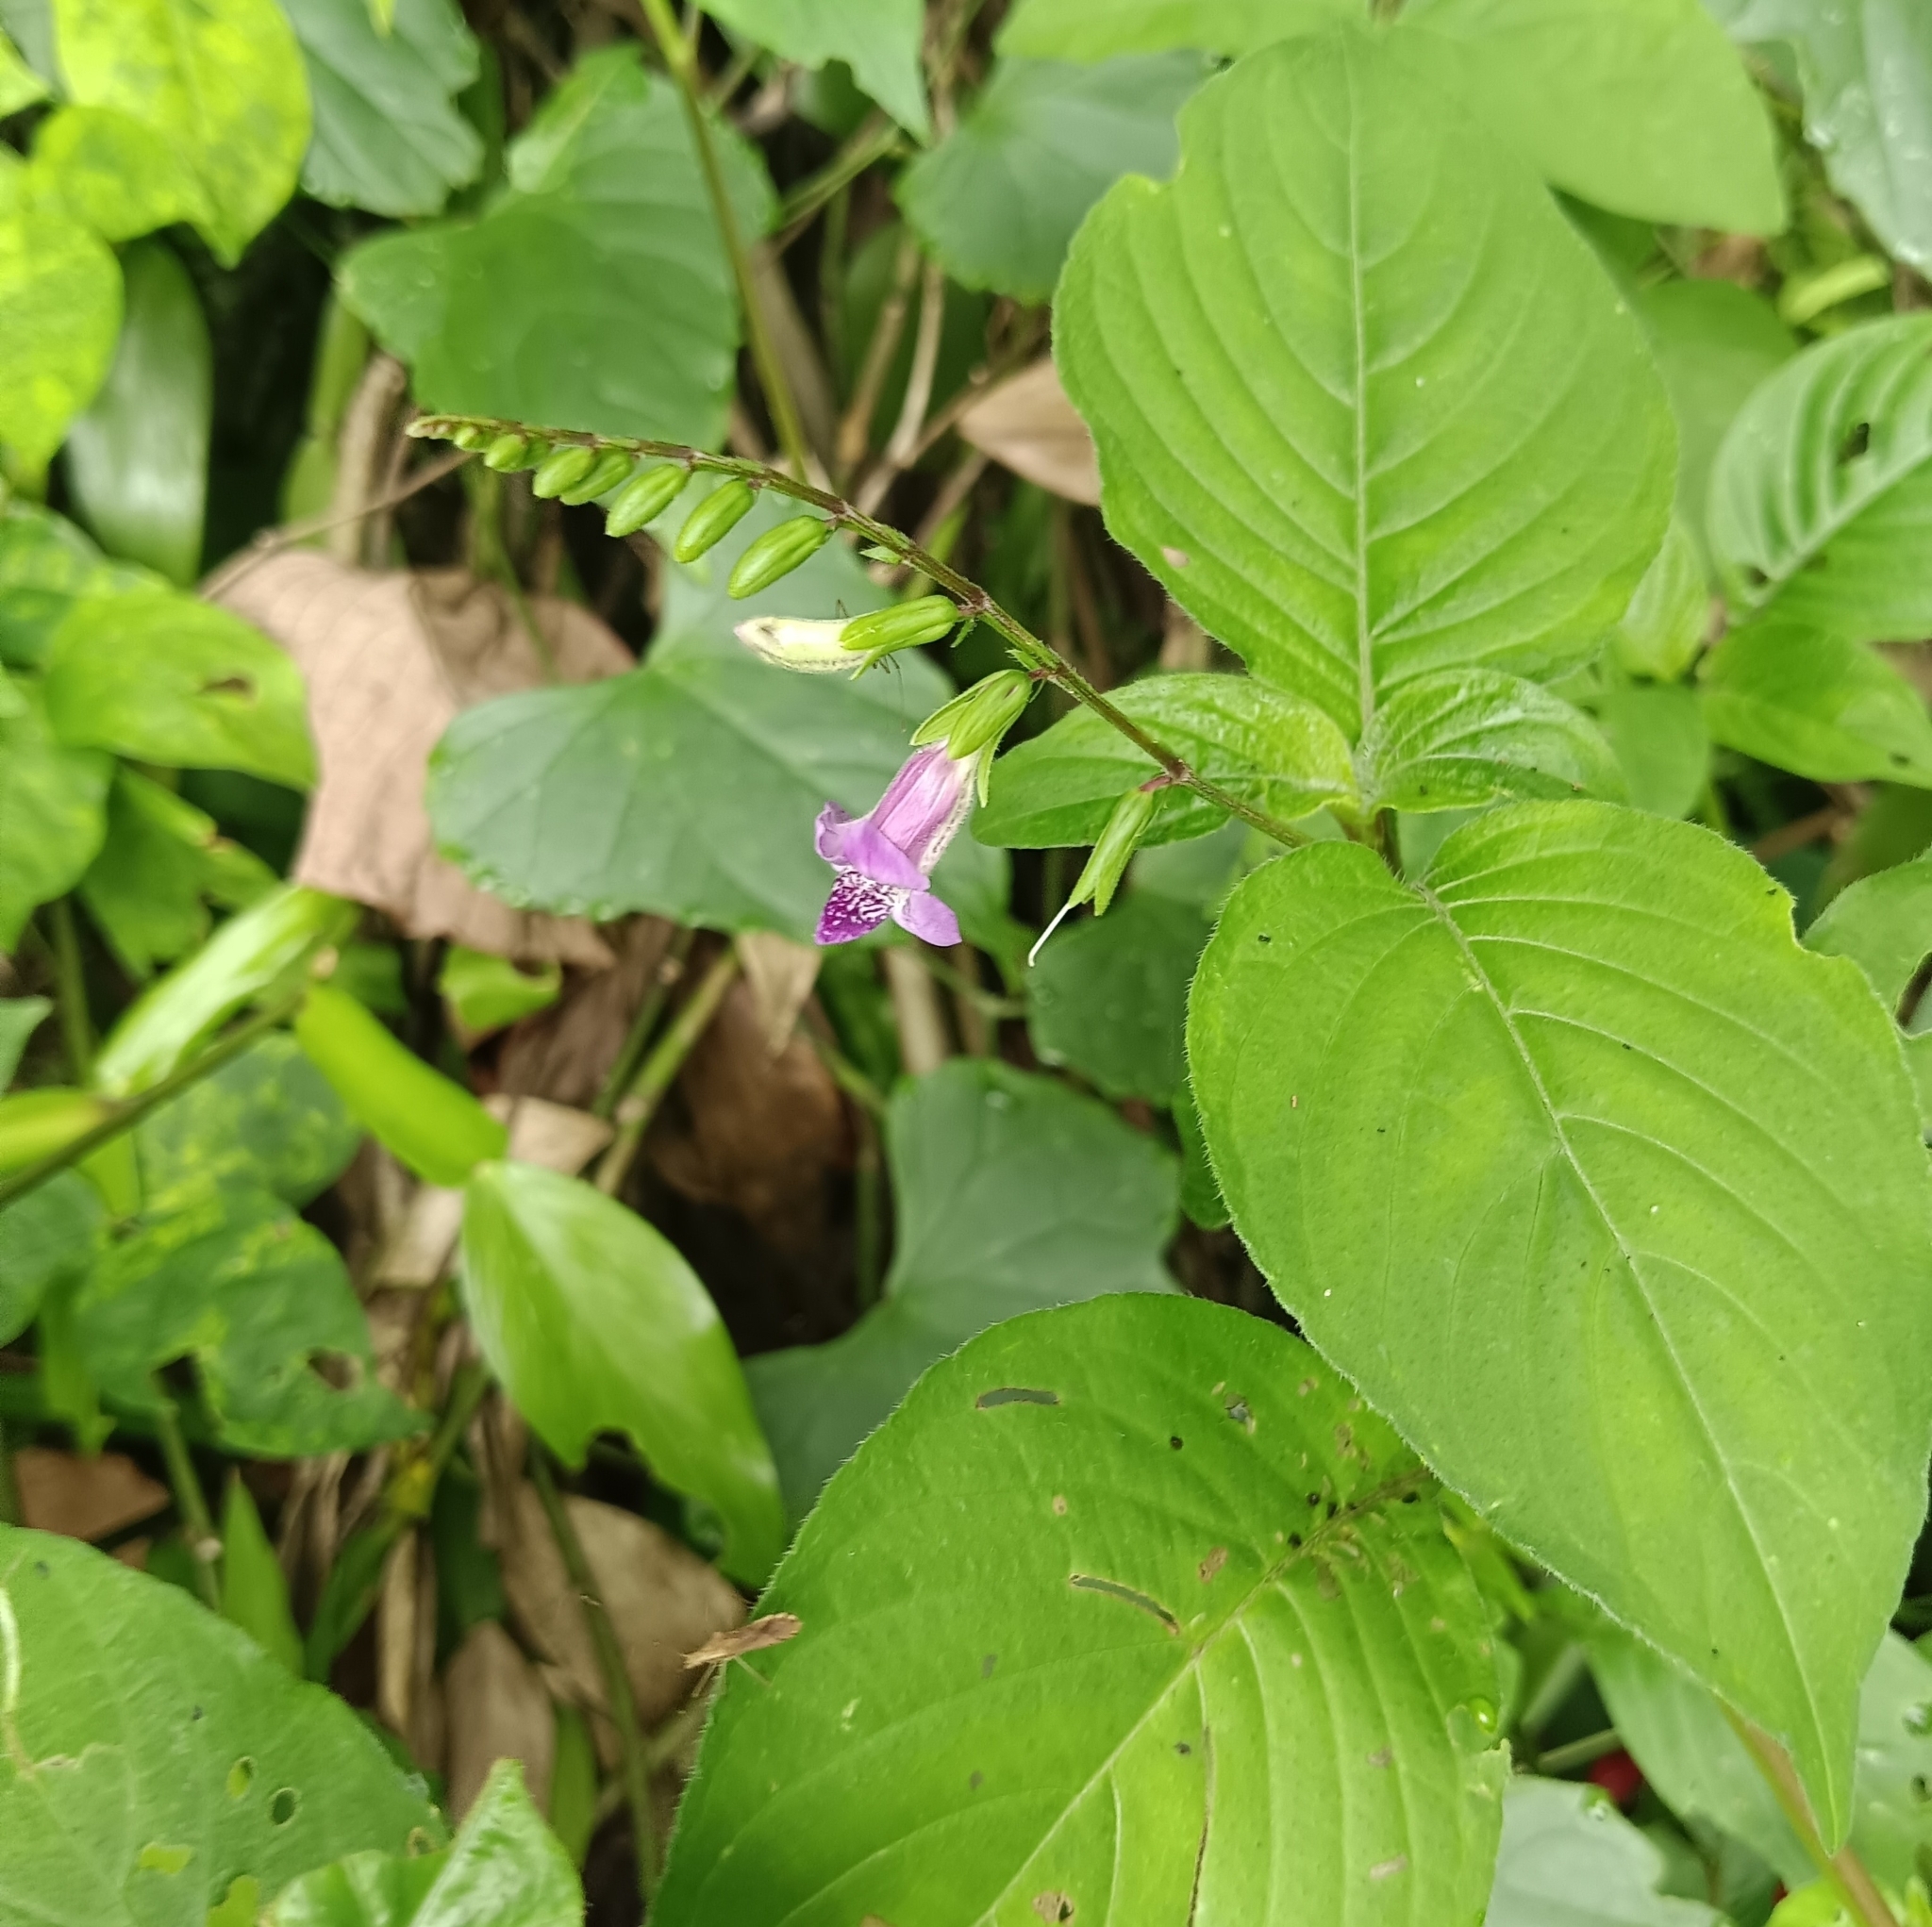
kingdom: Plantae
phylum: Tracheophyta
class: Magnoliopsida
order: Lamiales
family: Acanthaceae
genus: Asystasia
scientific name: Asystasia dalzelliana
